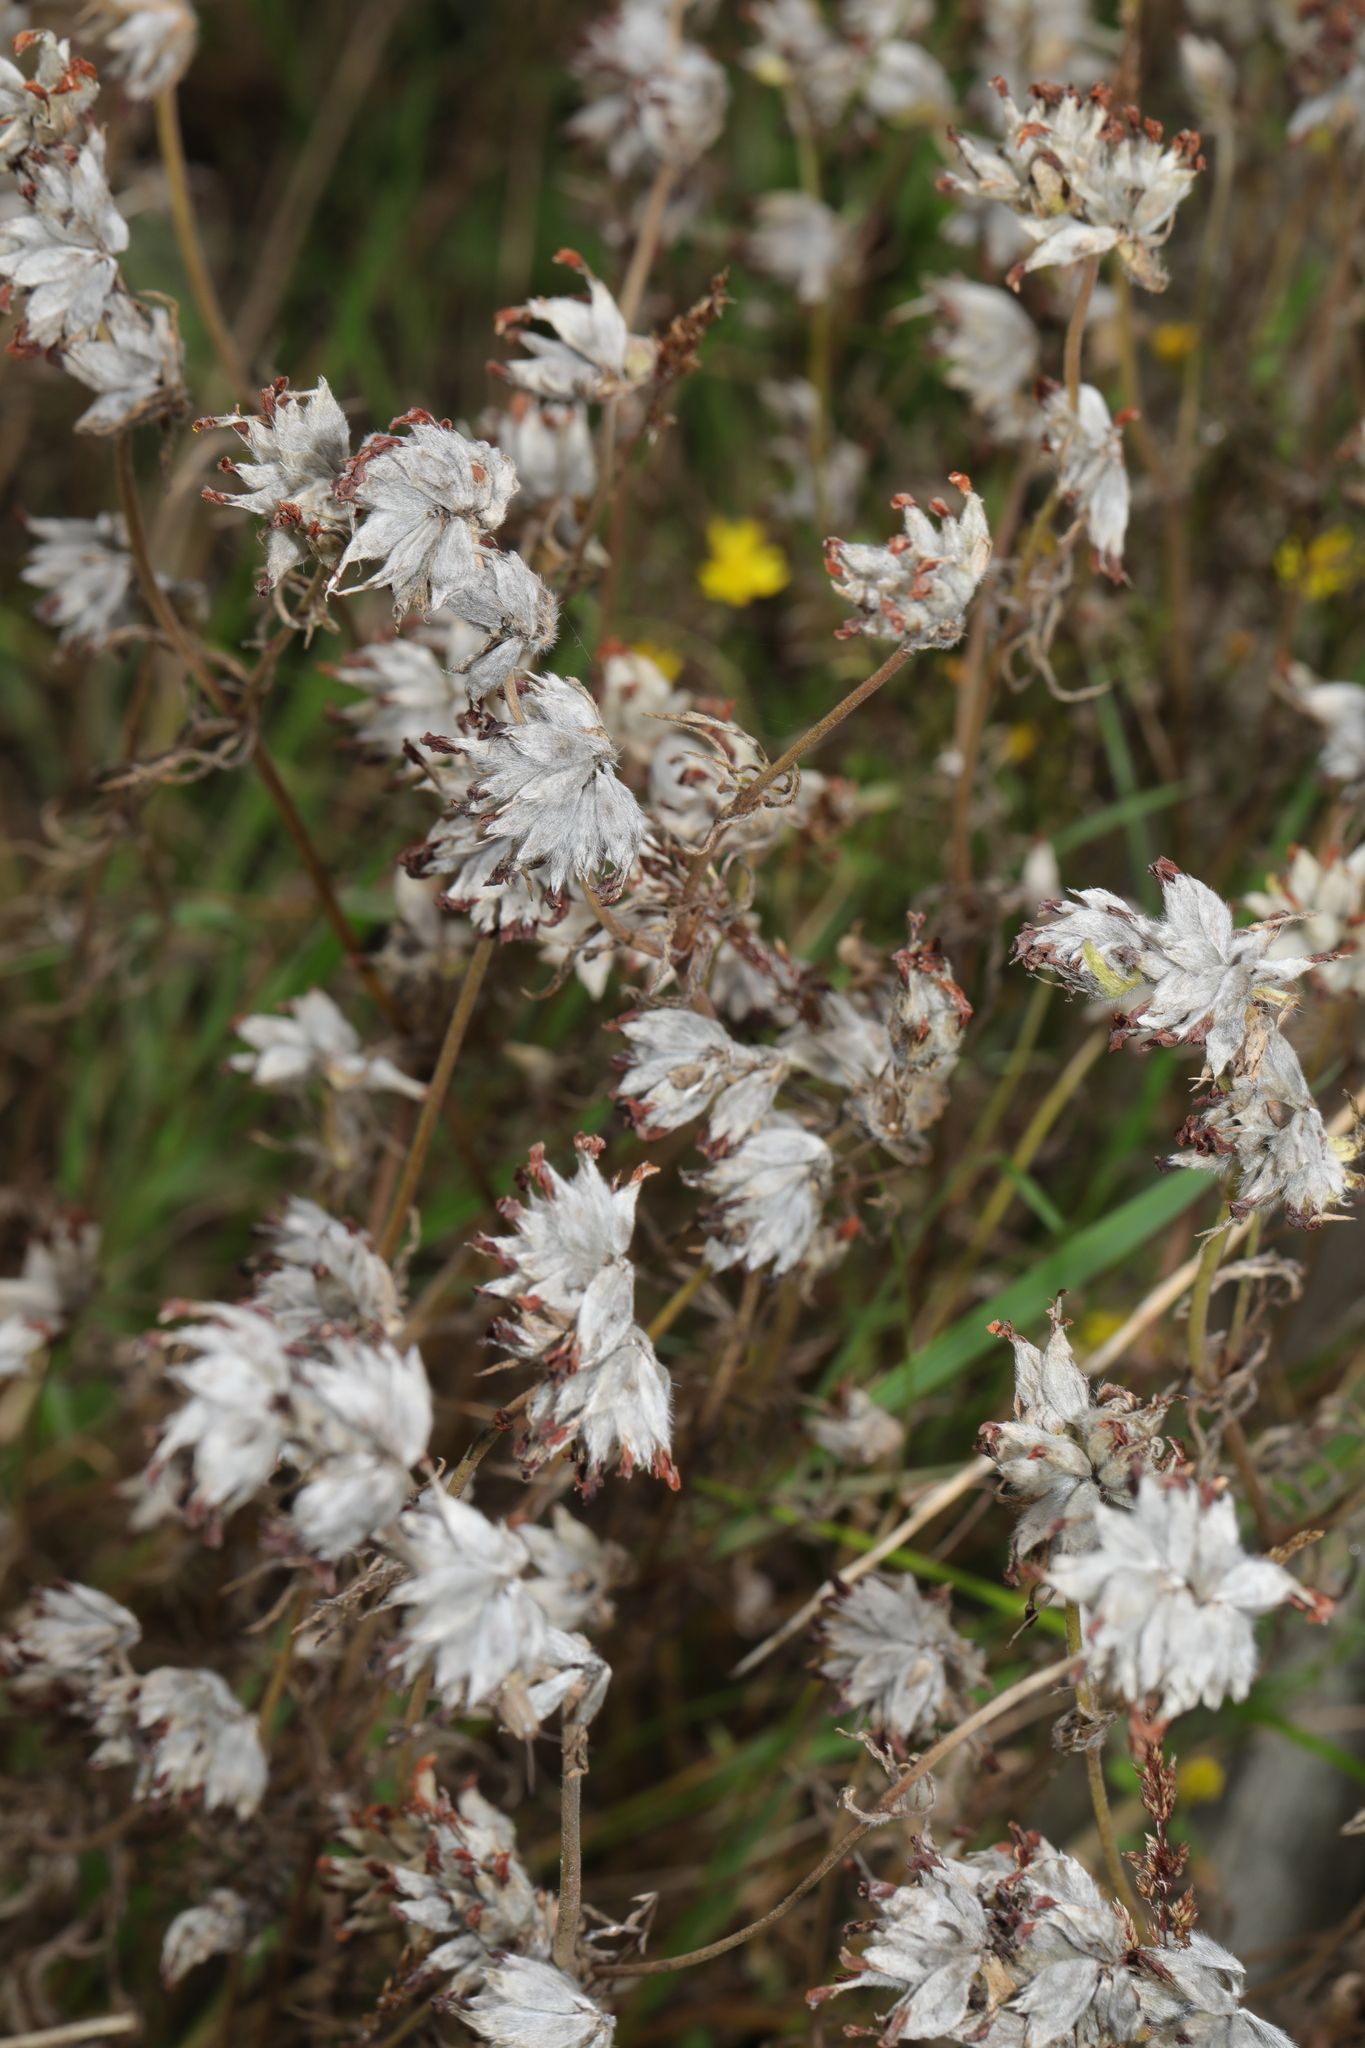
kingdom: Plantae
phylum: Tracheophyta
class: Magnoliopsida
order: Fabales
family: Fabaceae
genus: Anthyllis
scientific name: Anthyllis vulneraria
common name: Kidney vetch
